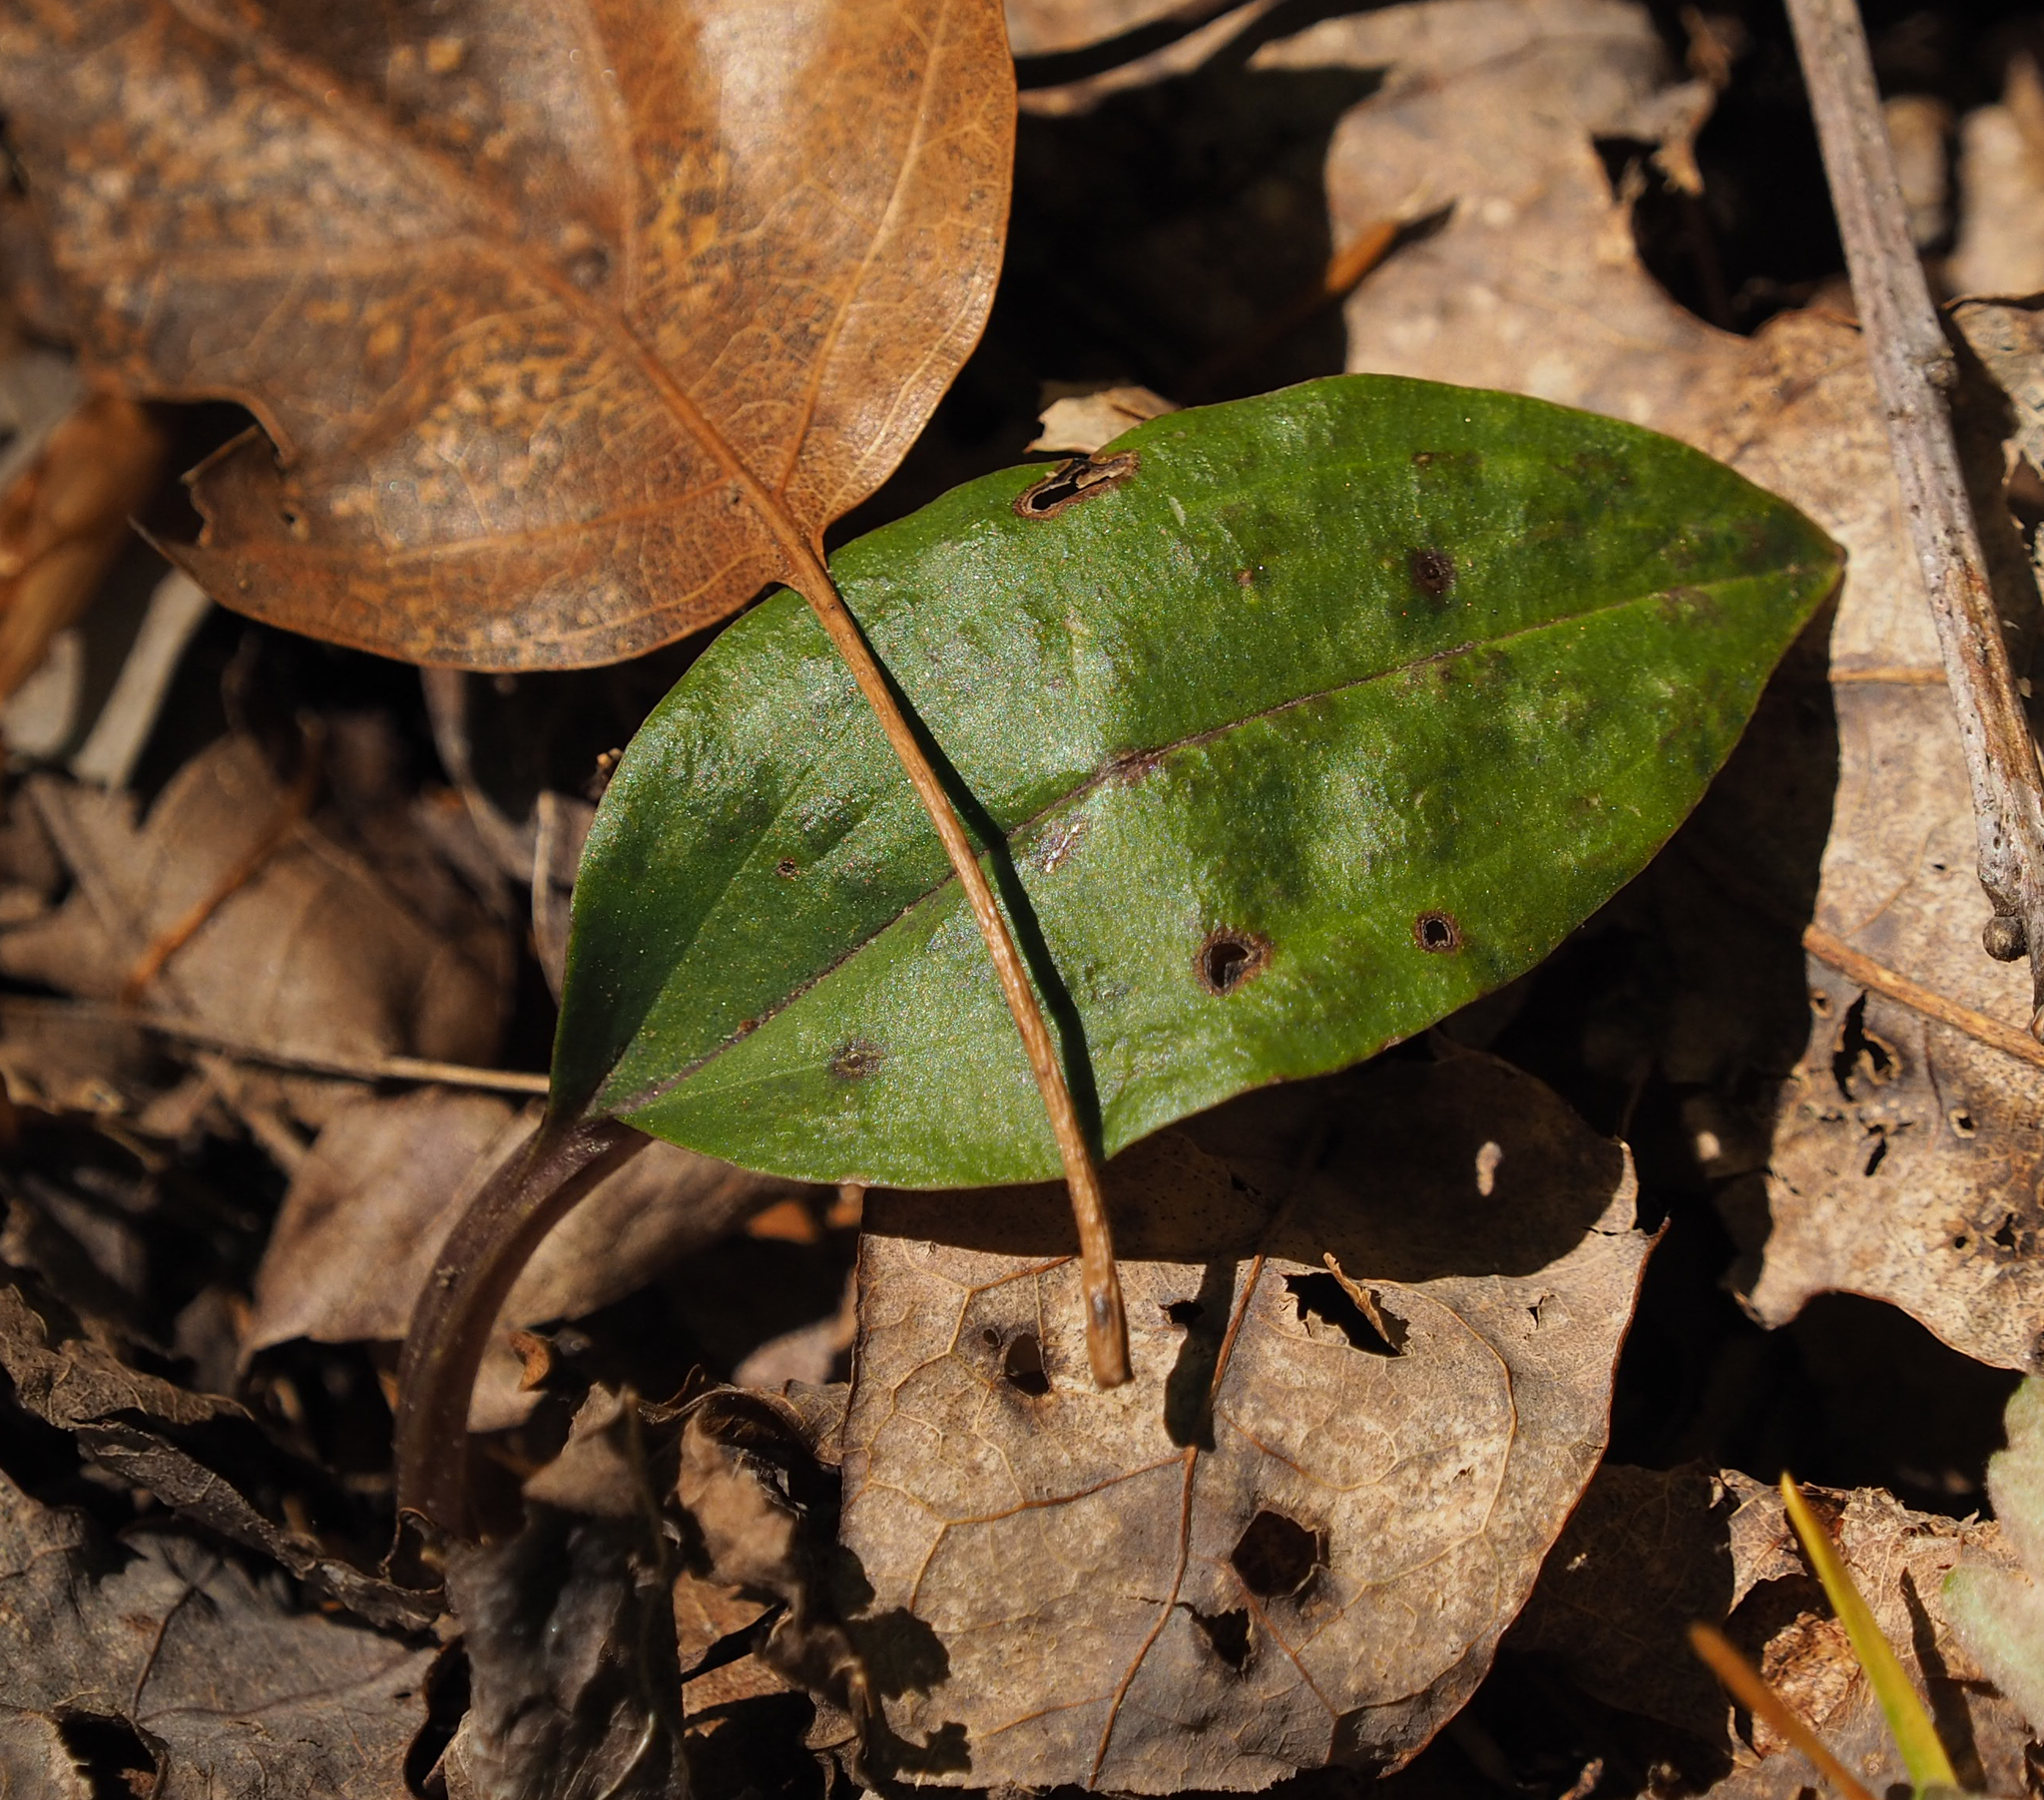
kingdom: Plantae
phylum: Tracheophyta
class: Liliopsida
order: Asparagales
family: Orchidaceae
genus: Tipularia
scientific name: Tipularia discolor
